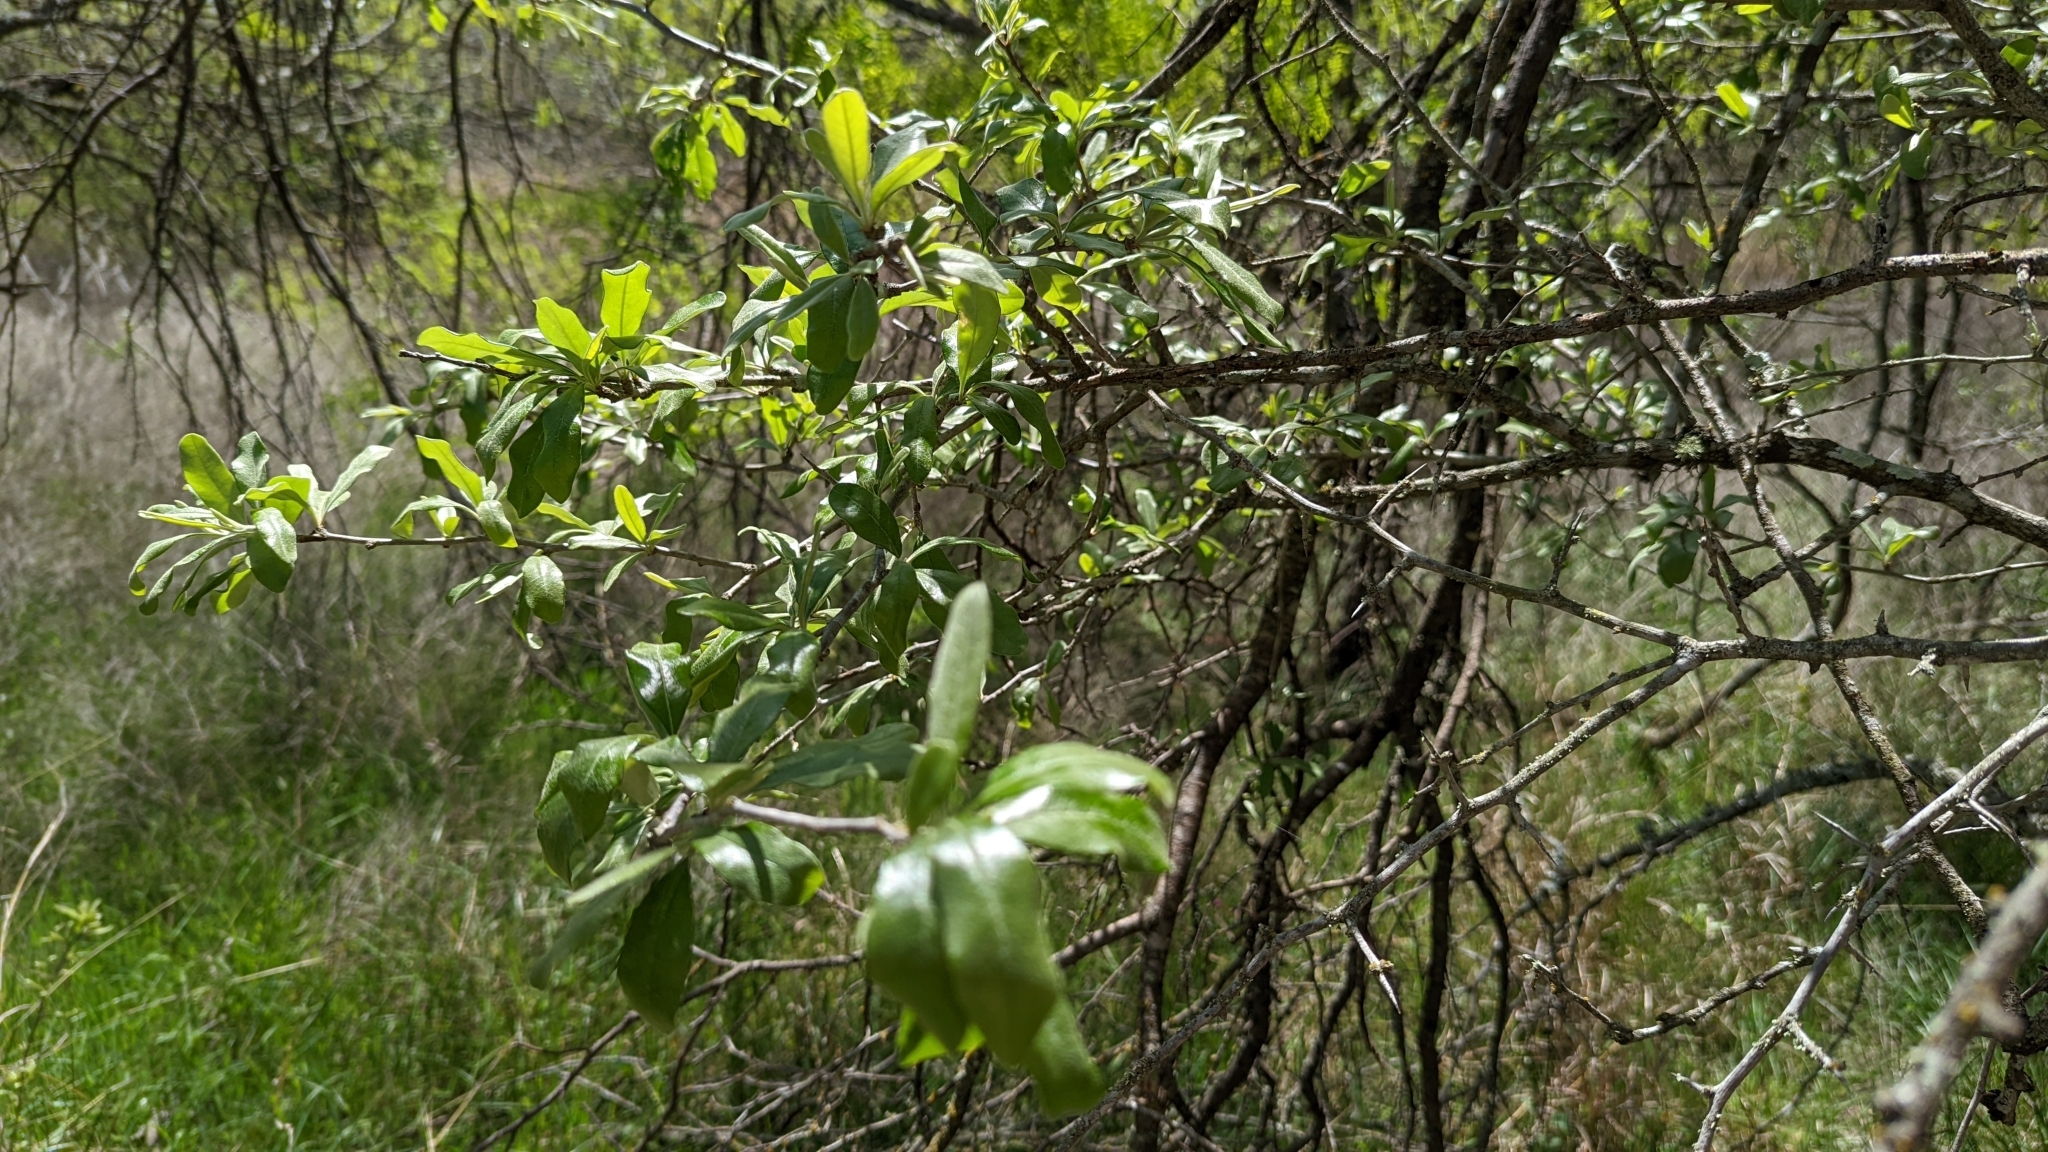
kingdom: Plantae
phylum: Tracheophyta
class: Magnoliopsida
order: Ericales
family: Sapotaceae
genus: Sideroxylon
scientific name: Sideroxylon lanuginosum
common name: Chittamwood
